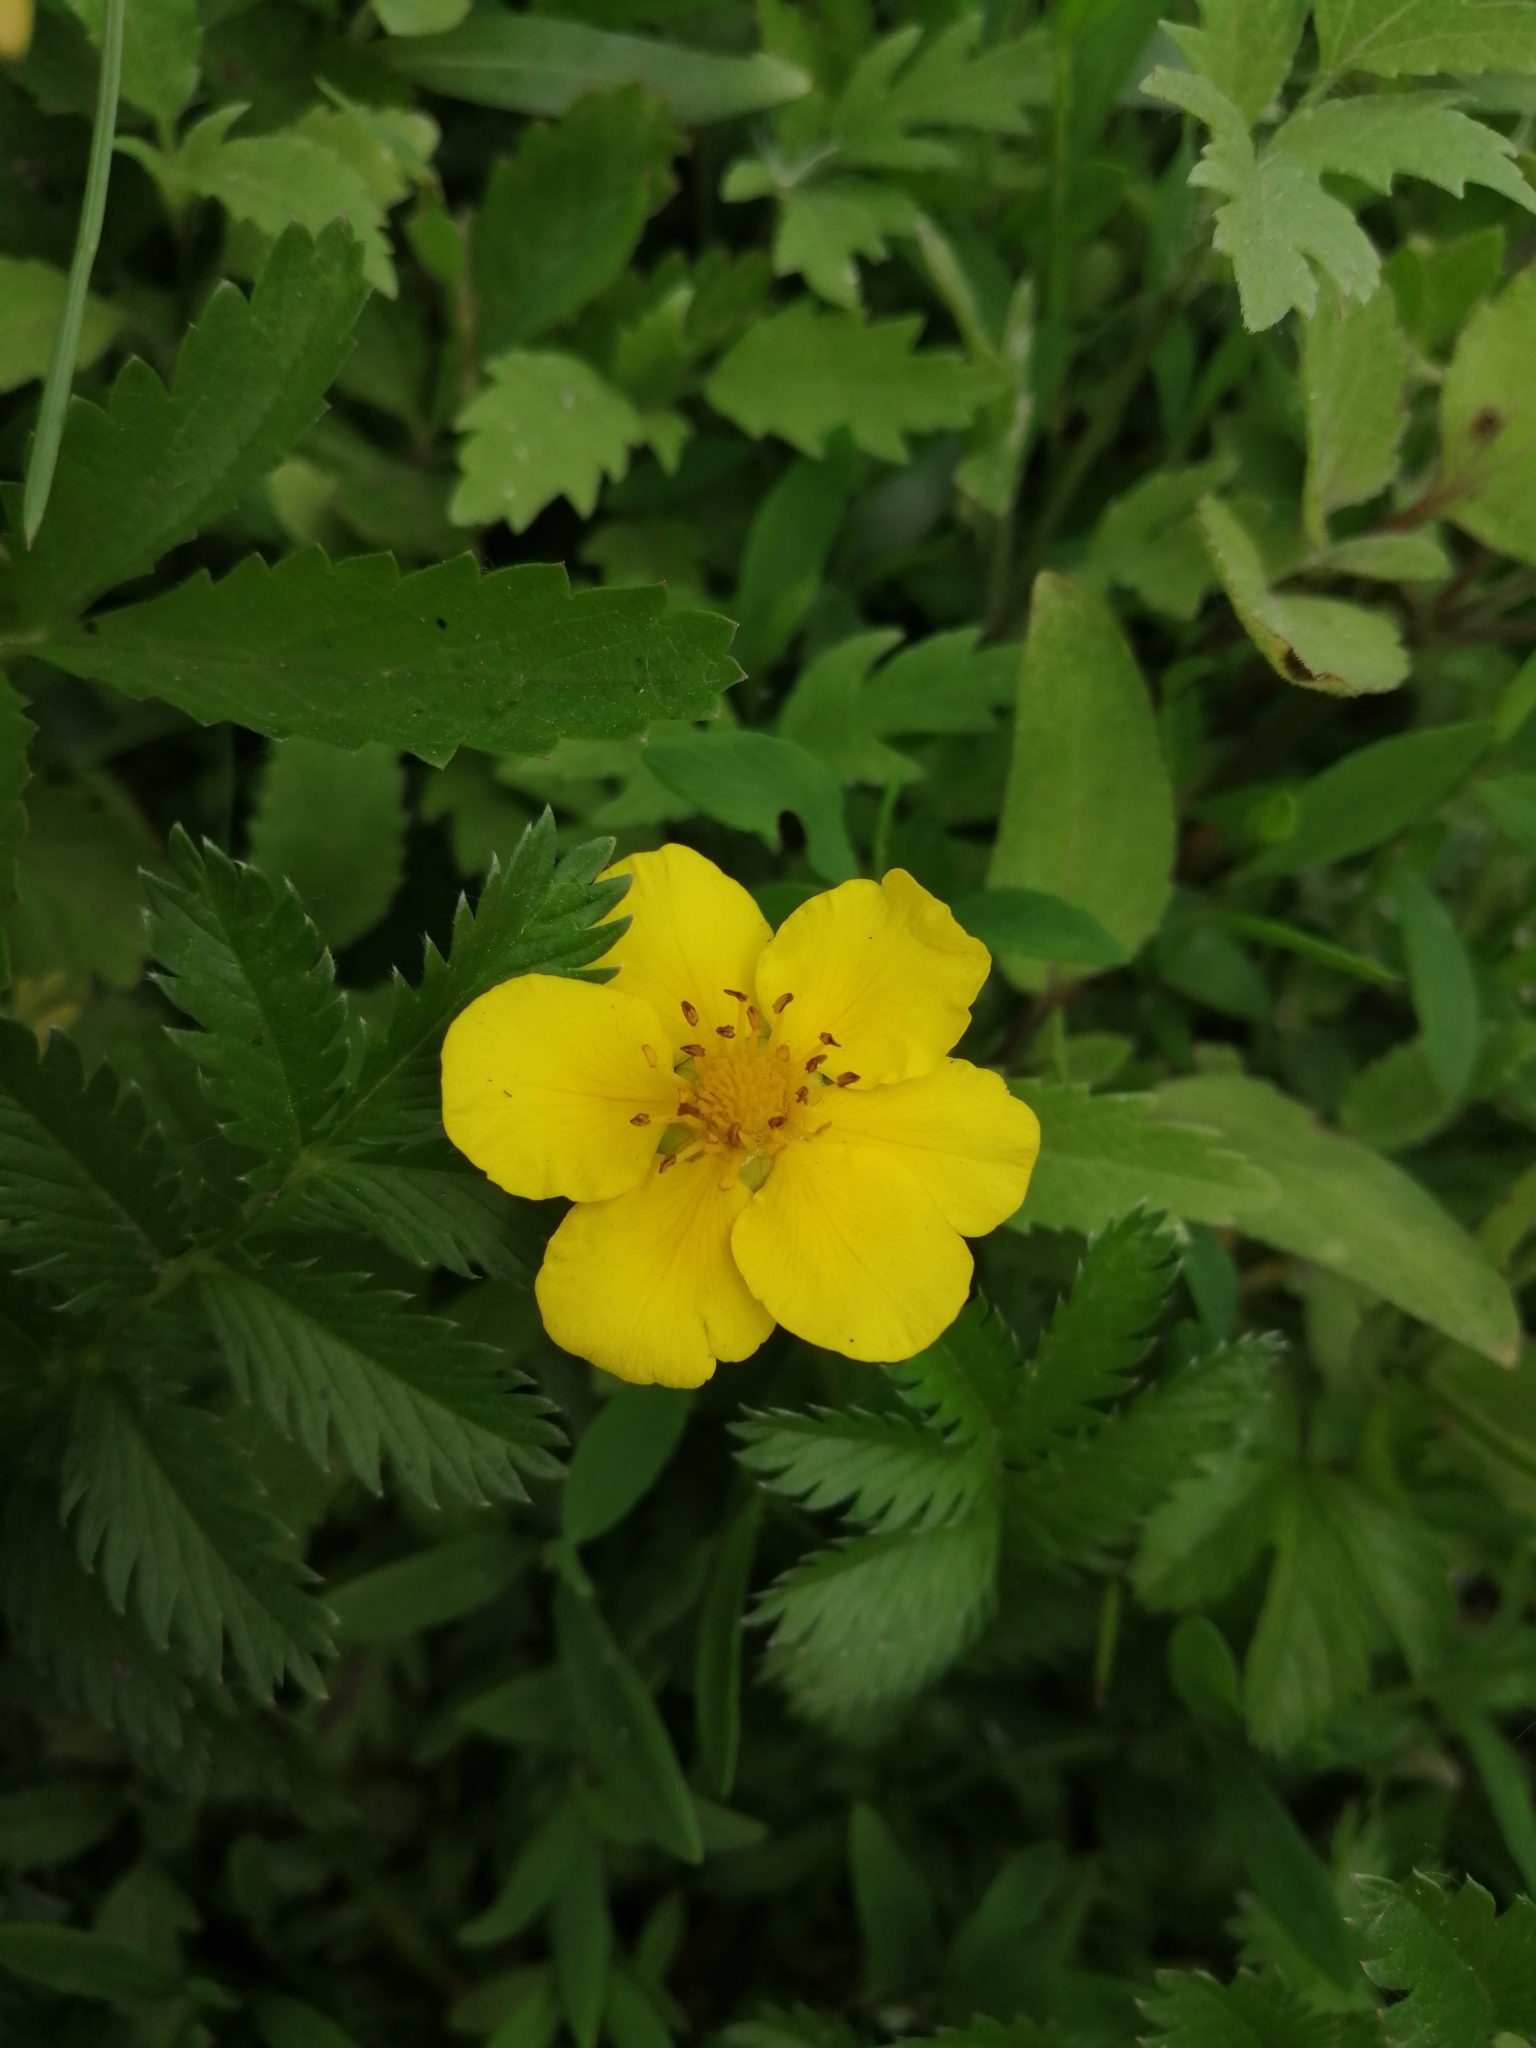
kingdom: Plantae
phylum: Tracheophyta
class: Magnoliopsida
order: Rosales
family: Rosaceae
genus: Argentina
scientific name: Argentina anserina
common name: Common silverweed
